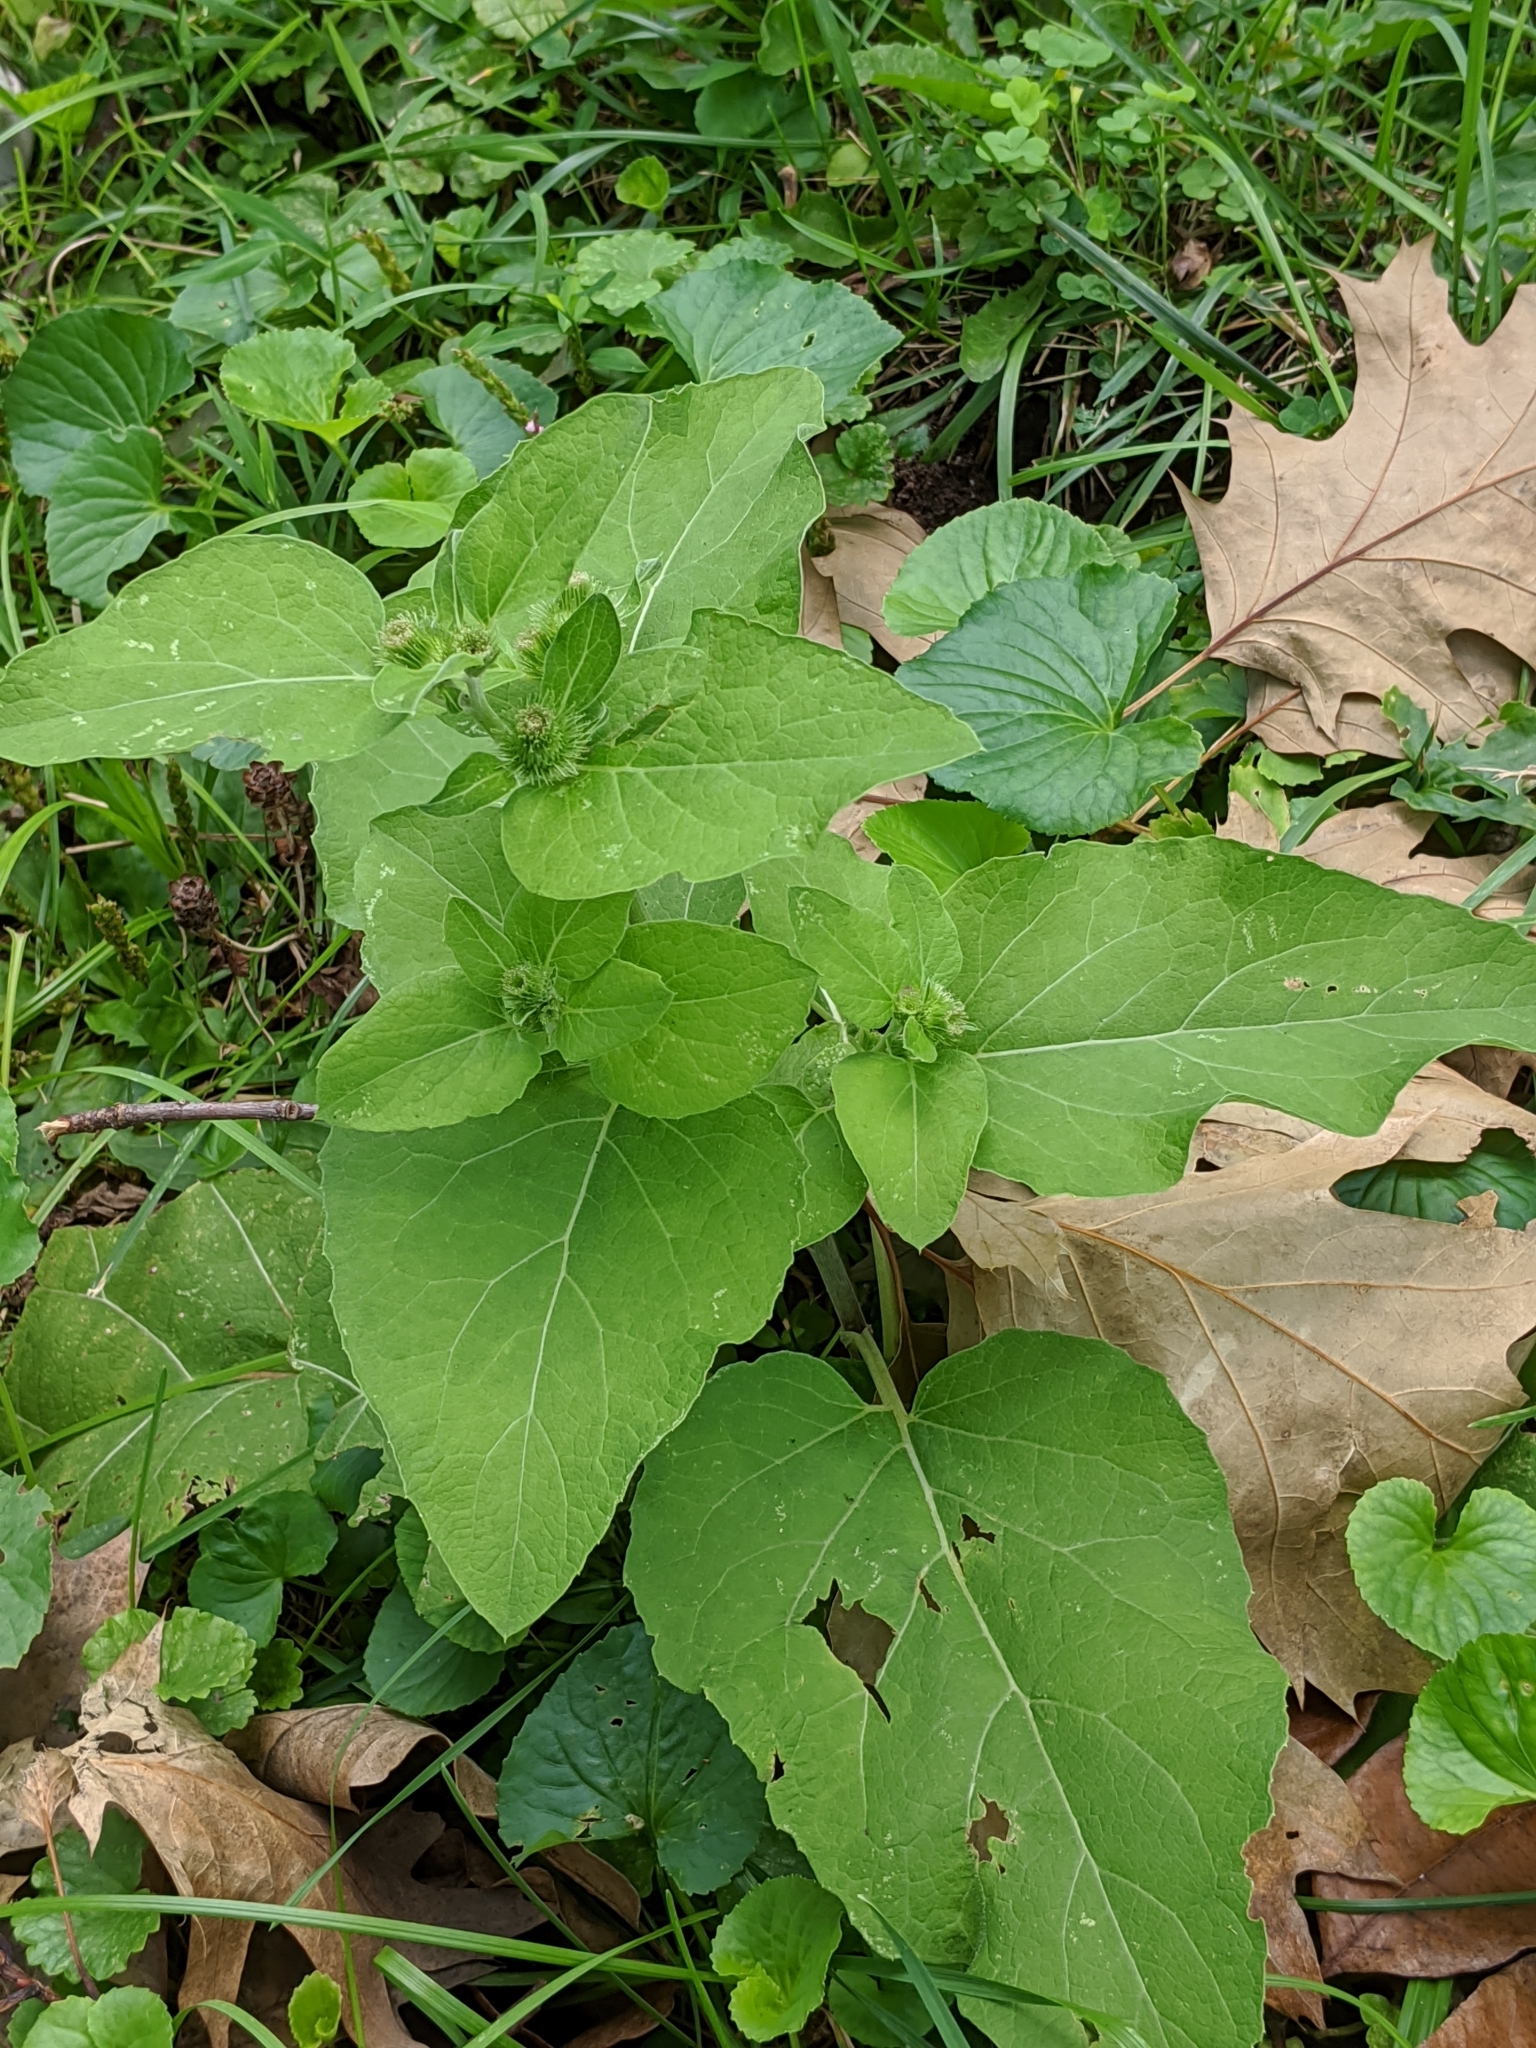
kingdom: Plantae
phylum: Tracheophyta
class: Magnoliopsida
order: Asterales
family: Asteraceae
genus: Arctium
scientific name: Arctium
